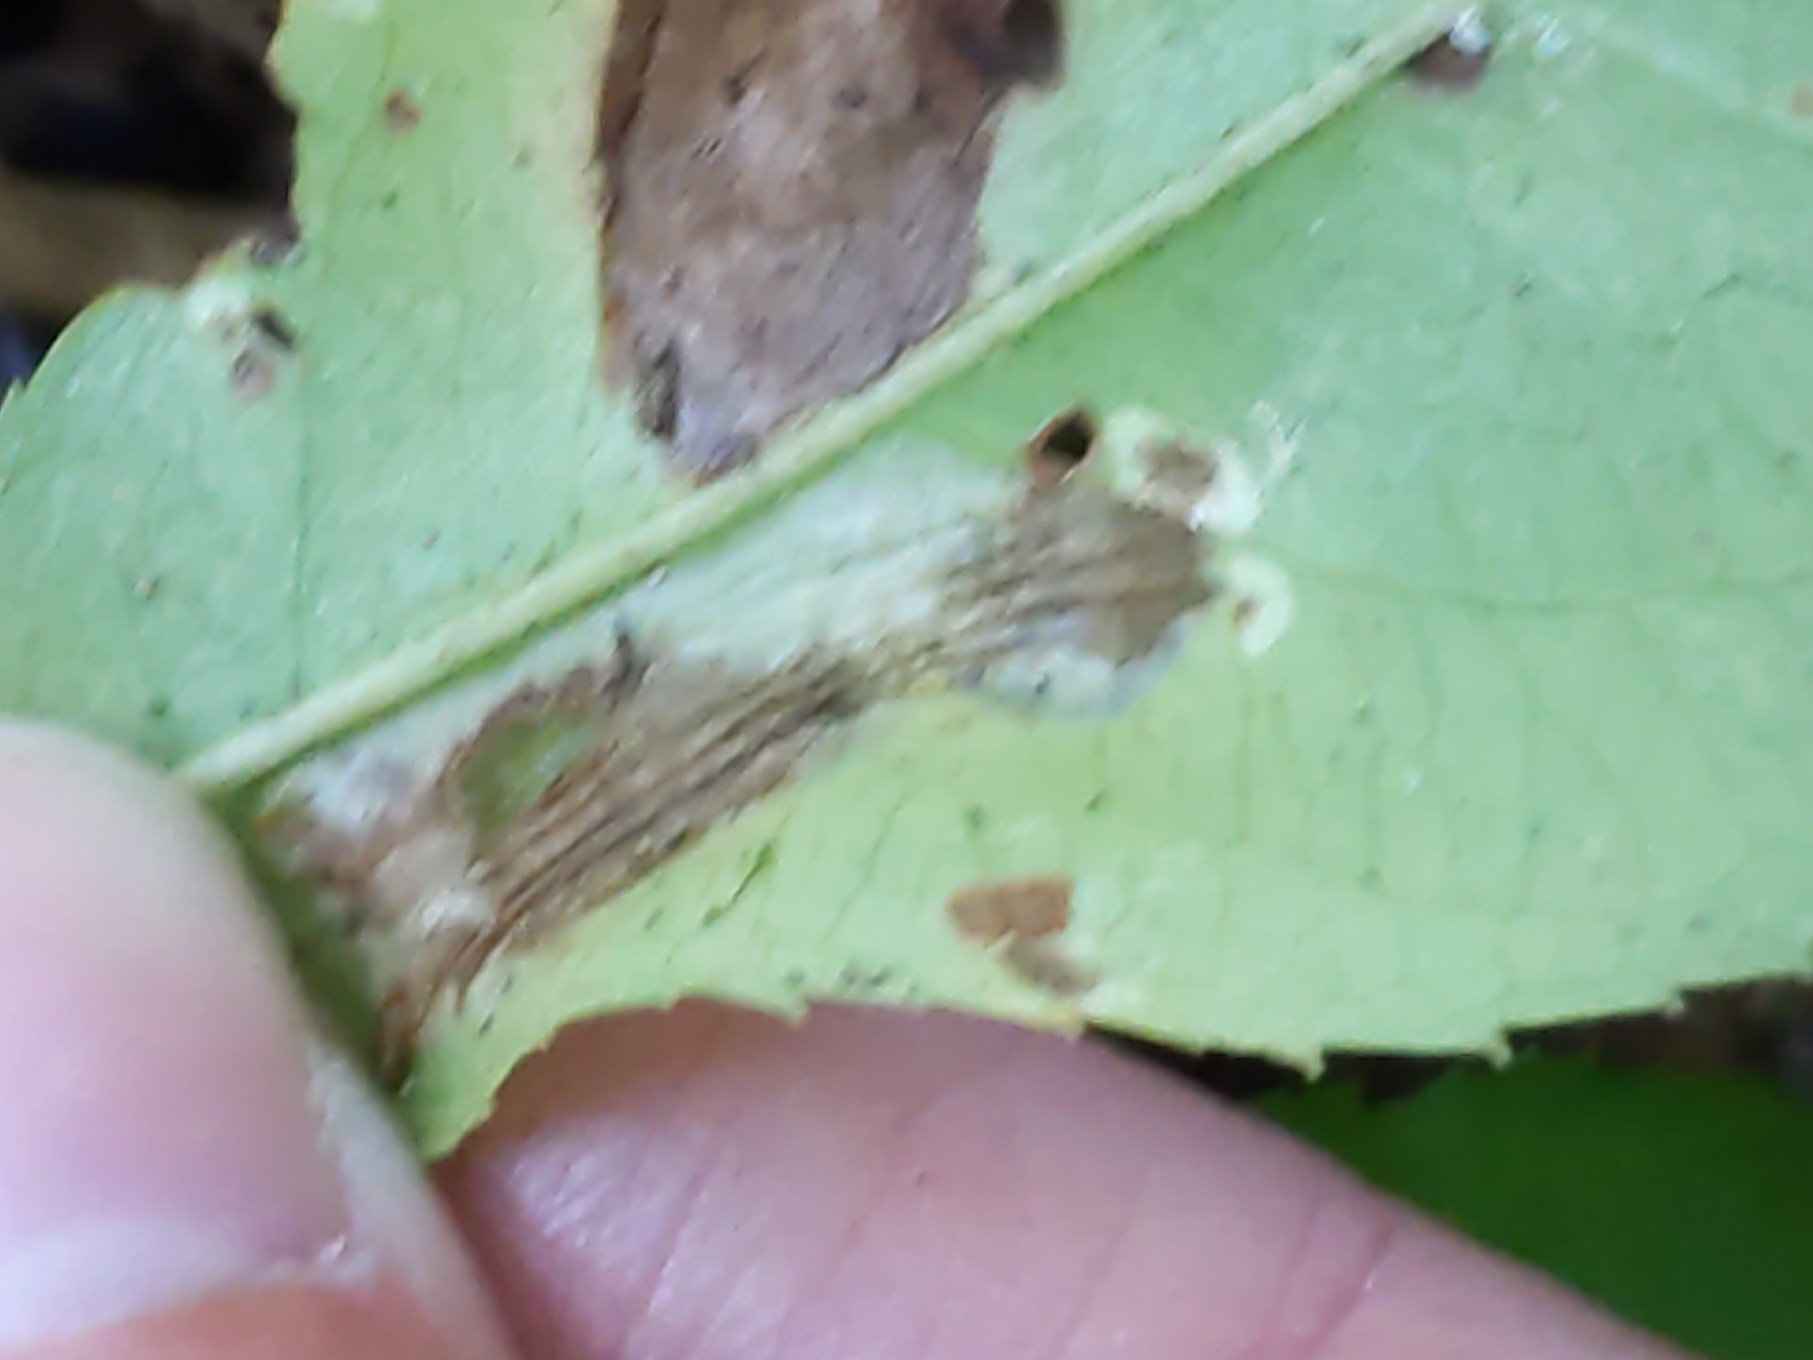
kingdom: Animalia
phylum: Arthropoda
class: Insecta
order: Lepidoptera
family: Gracillariidae
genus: Phyllonorycter
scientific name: Phyllonorycter propinquinella
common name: Cherry blotchminer
